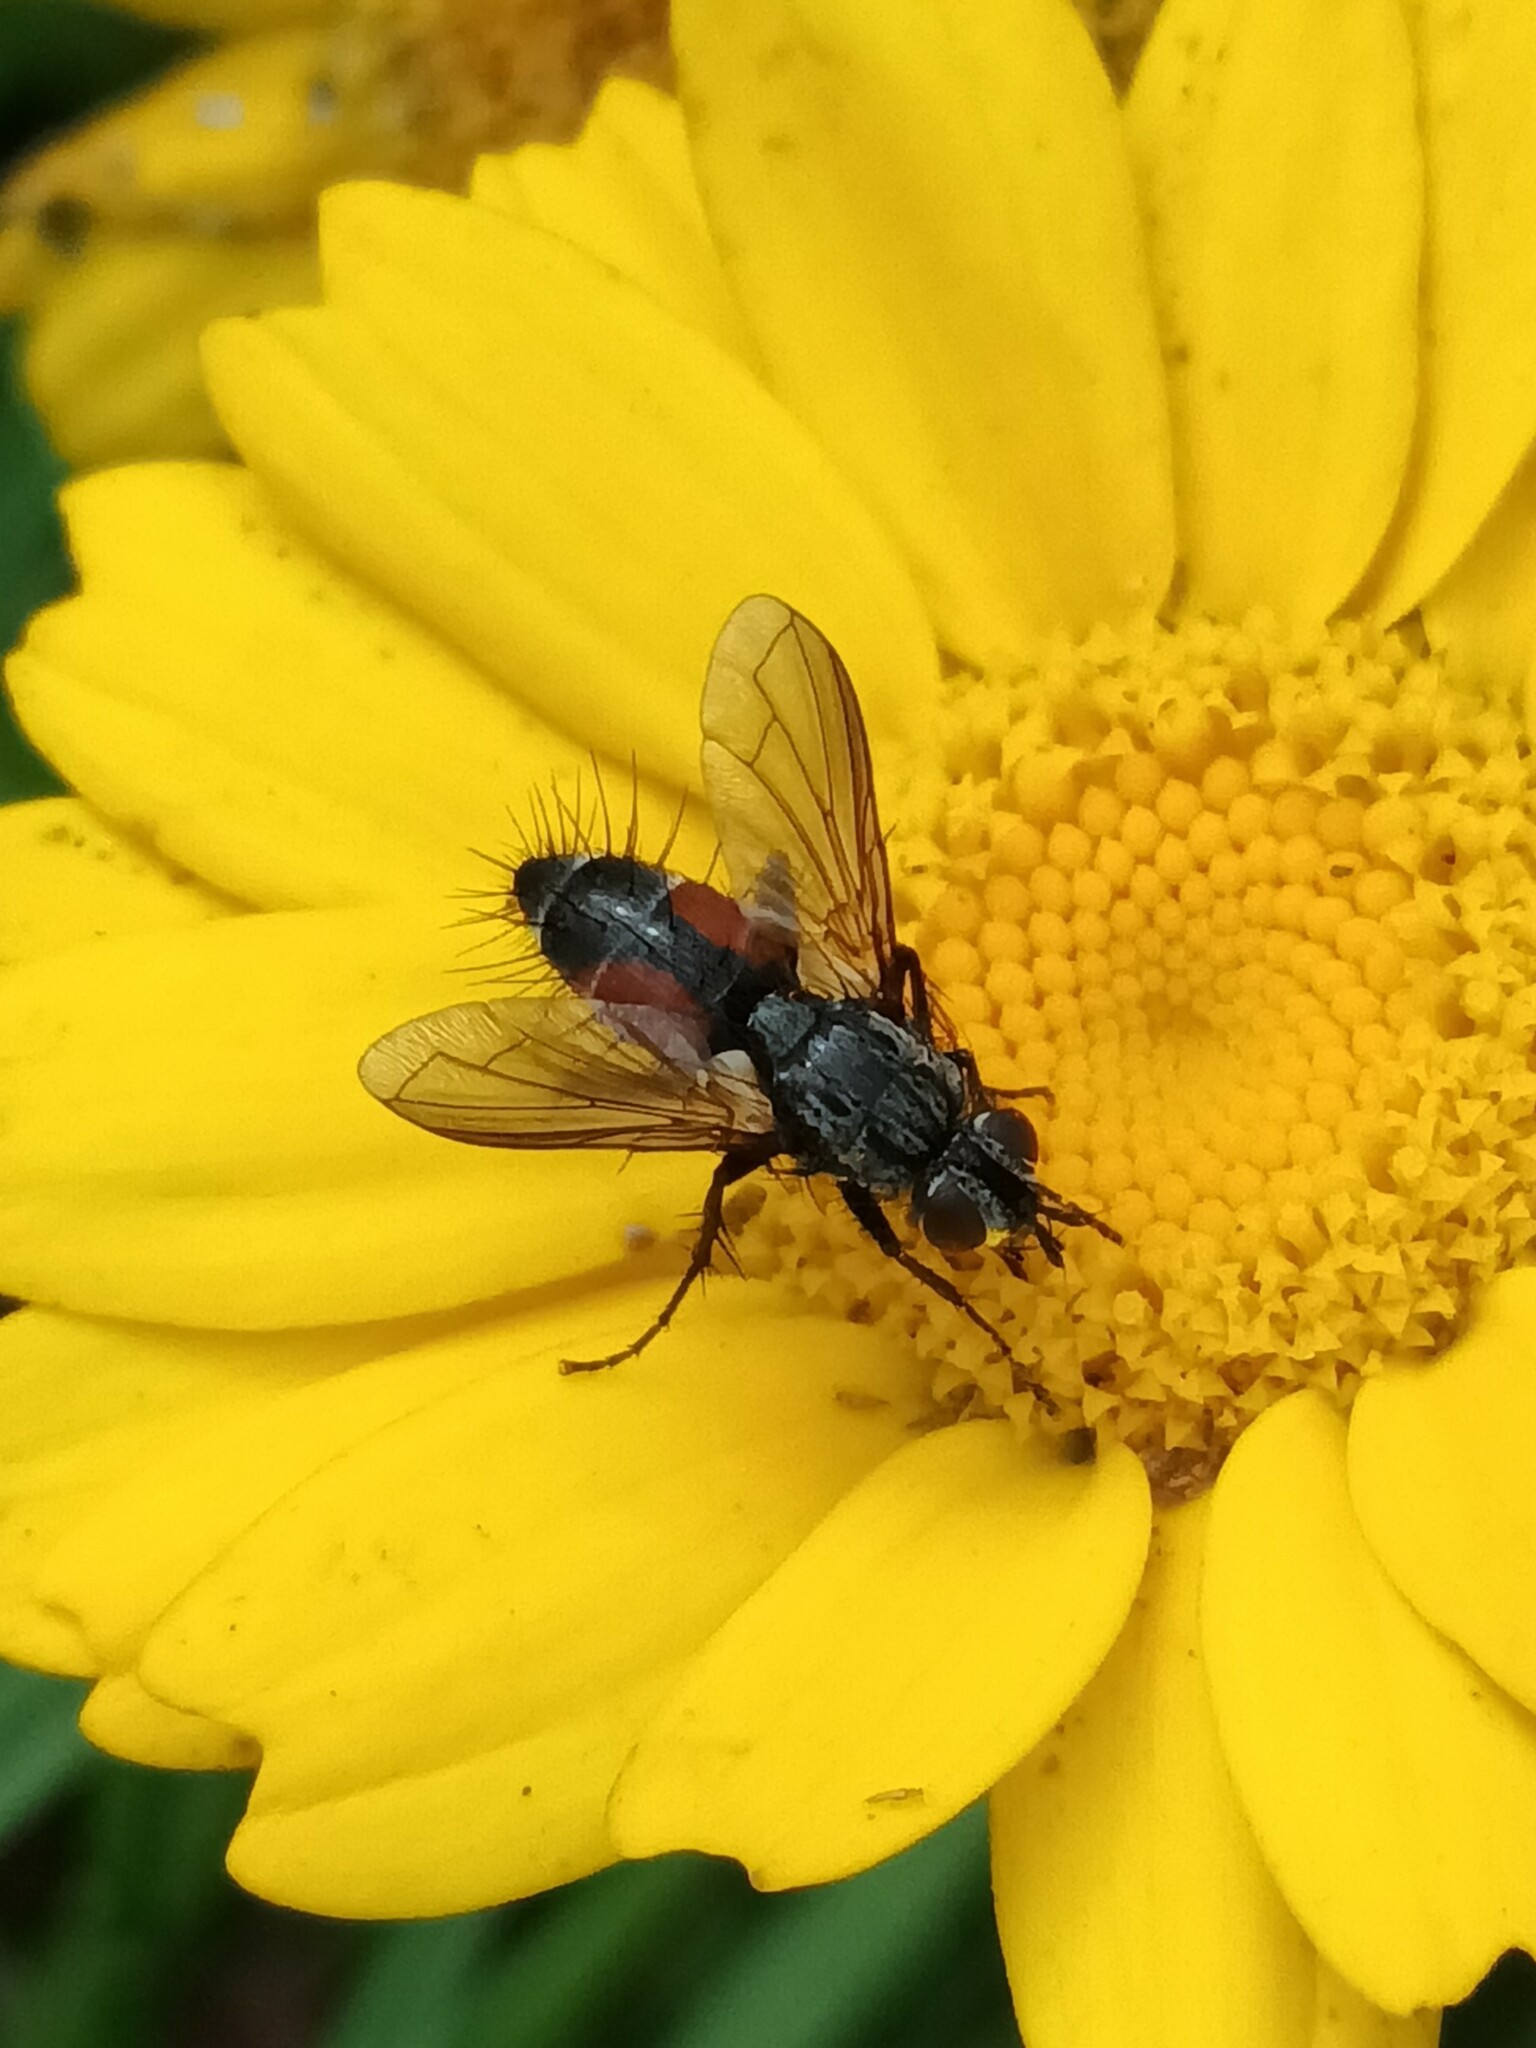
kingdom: Animalia
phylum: Arthropoda
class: Insecta
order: Diptera
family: Tachinidae
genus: Eriothrix
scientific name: Eriothrix rufomaculatus
